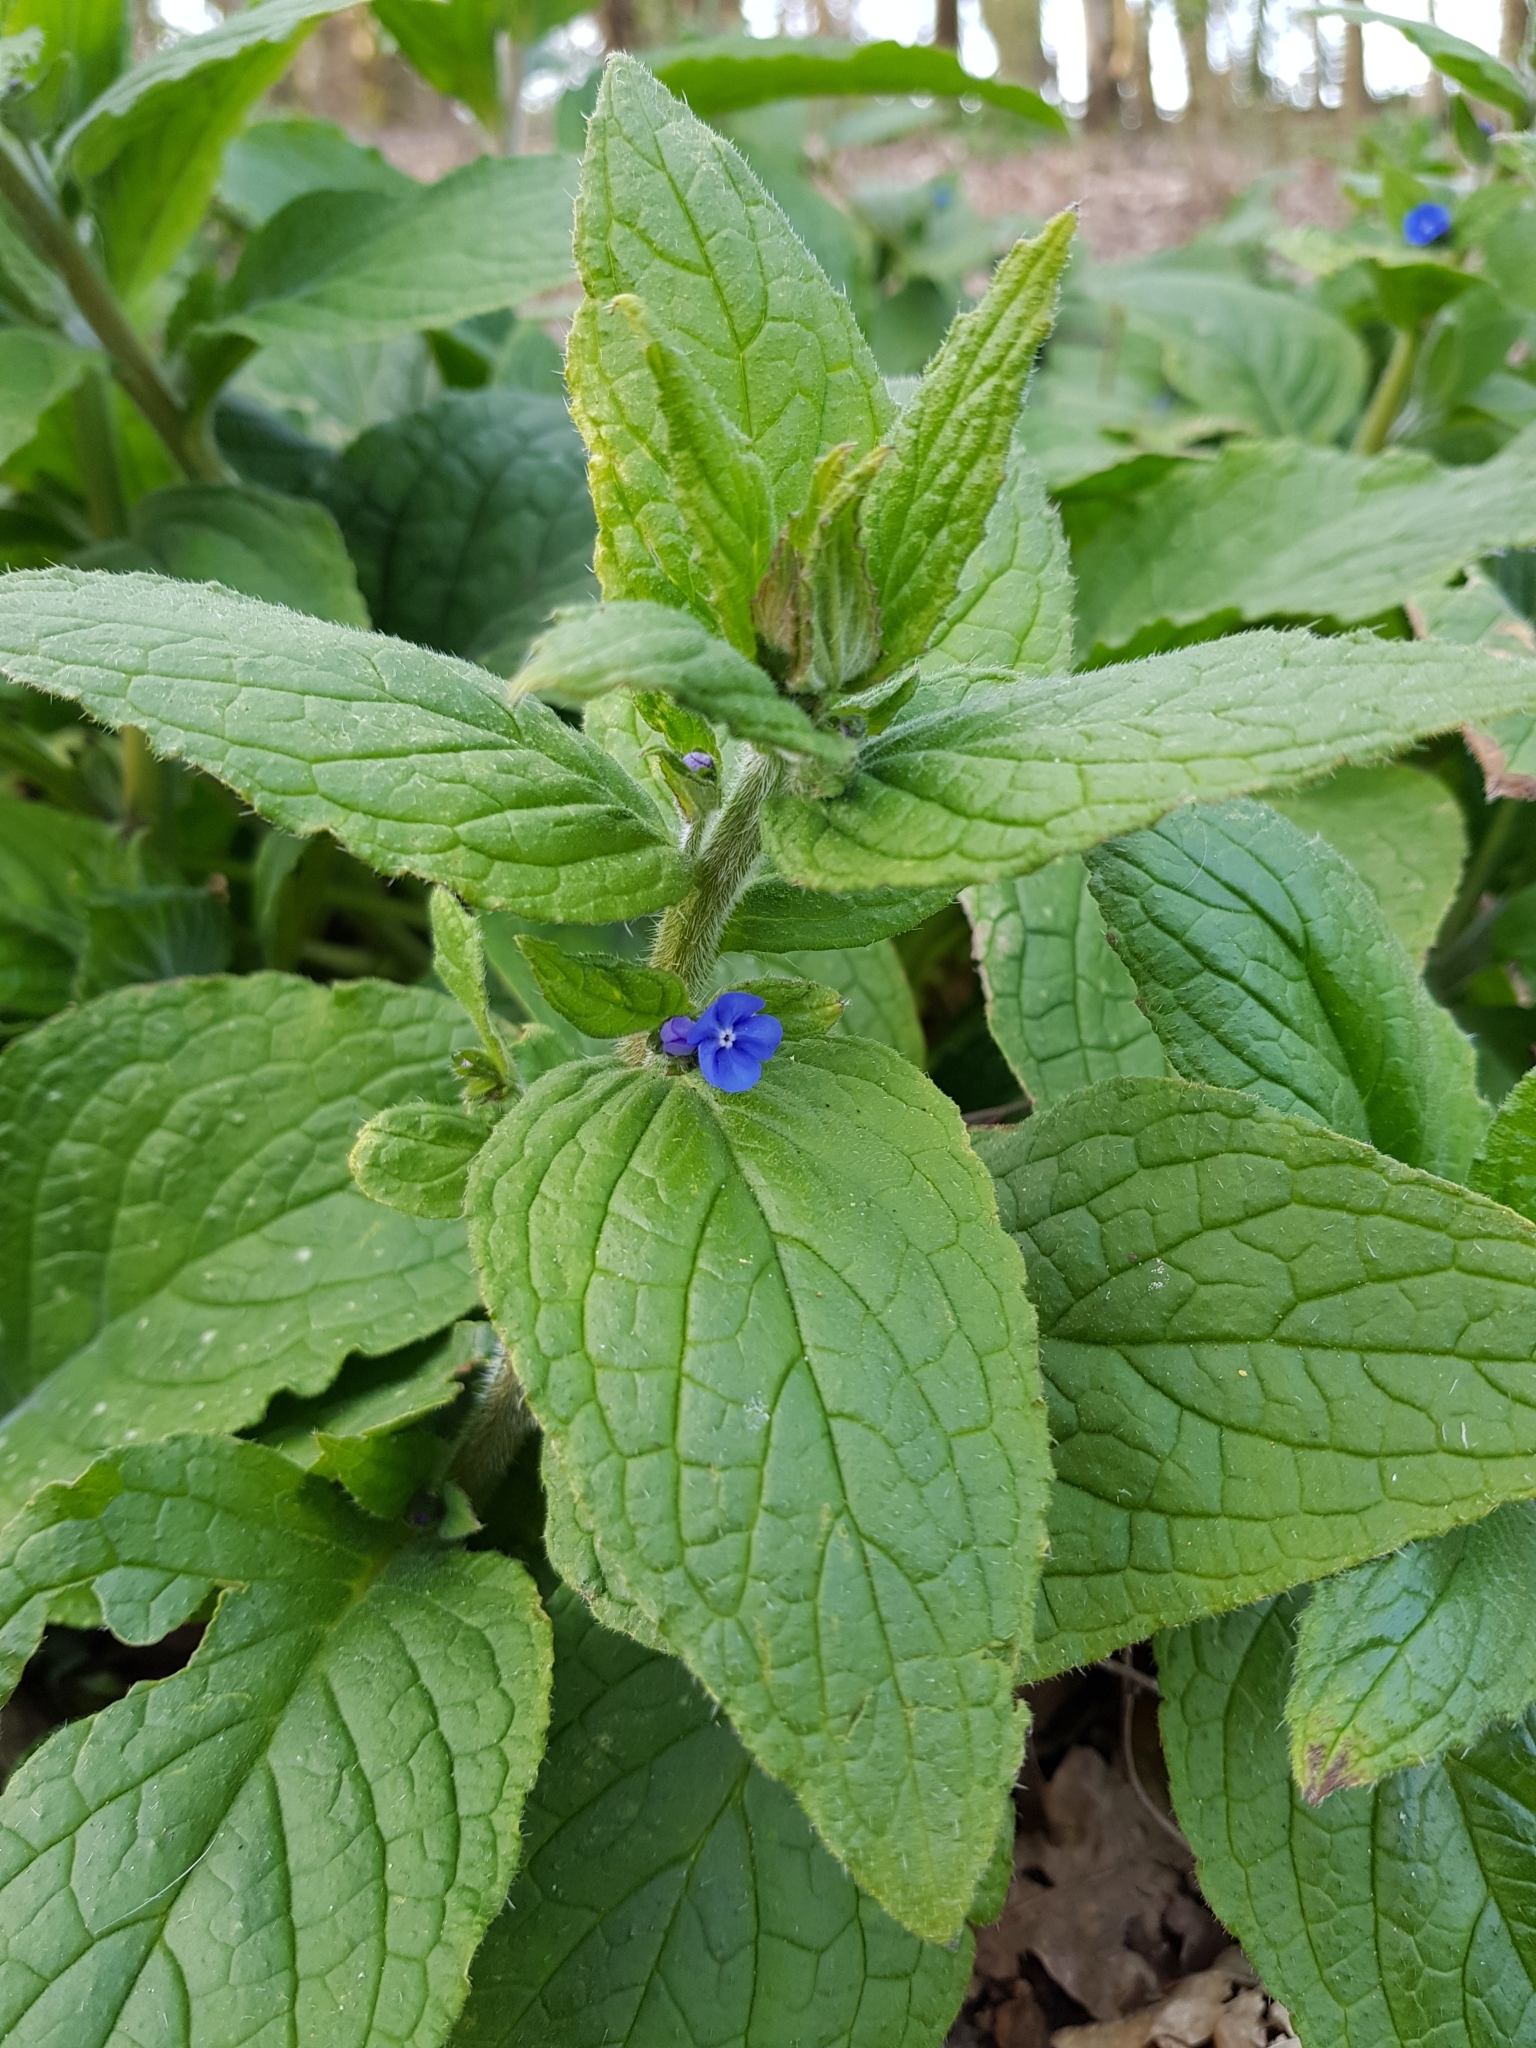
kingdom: Plantae
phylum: Tracheophyta
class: Magnoliopsida
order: Boraginales
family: Boraginaceae
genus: Pentaglottis
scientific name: Pentaglottis sempervirens
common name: Green alkanet
